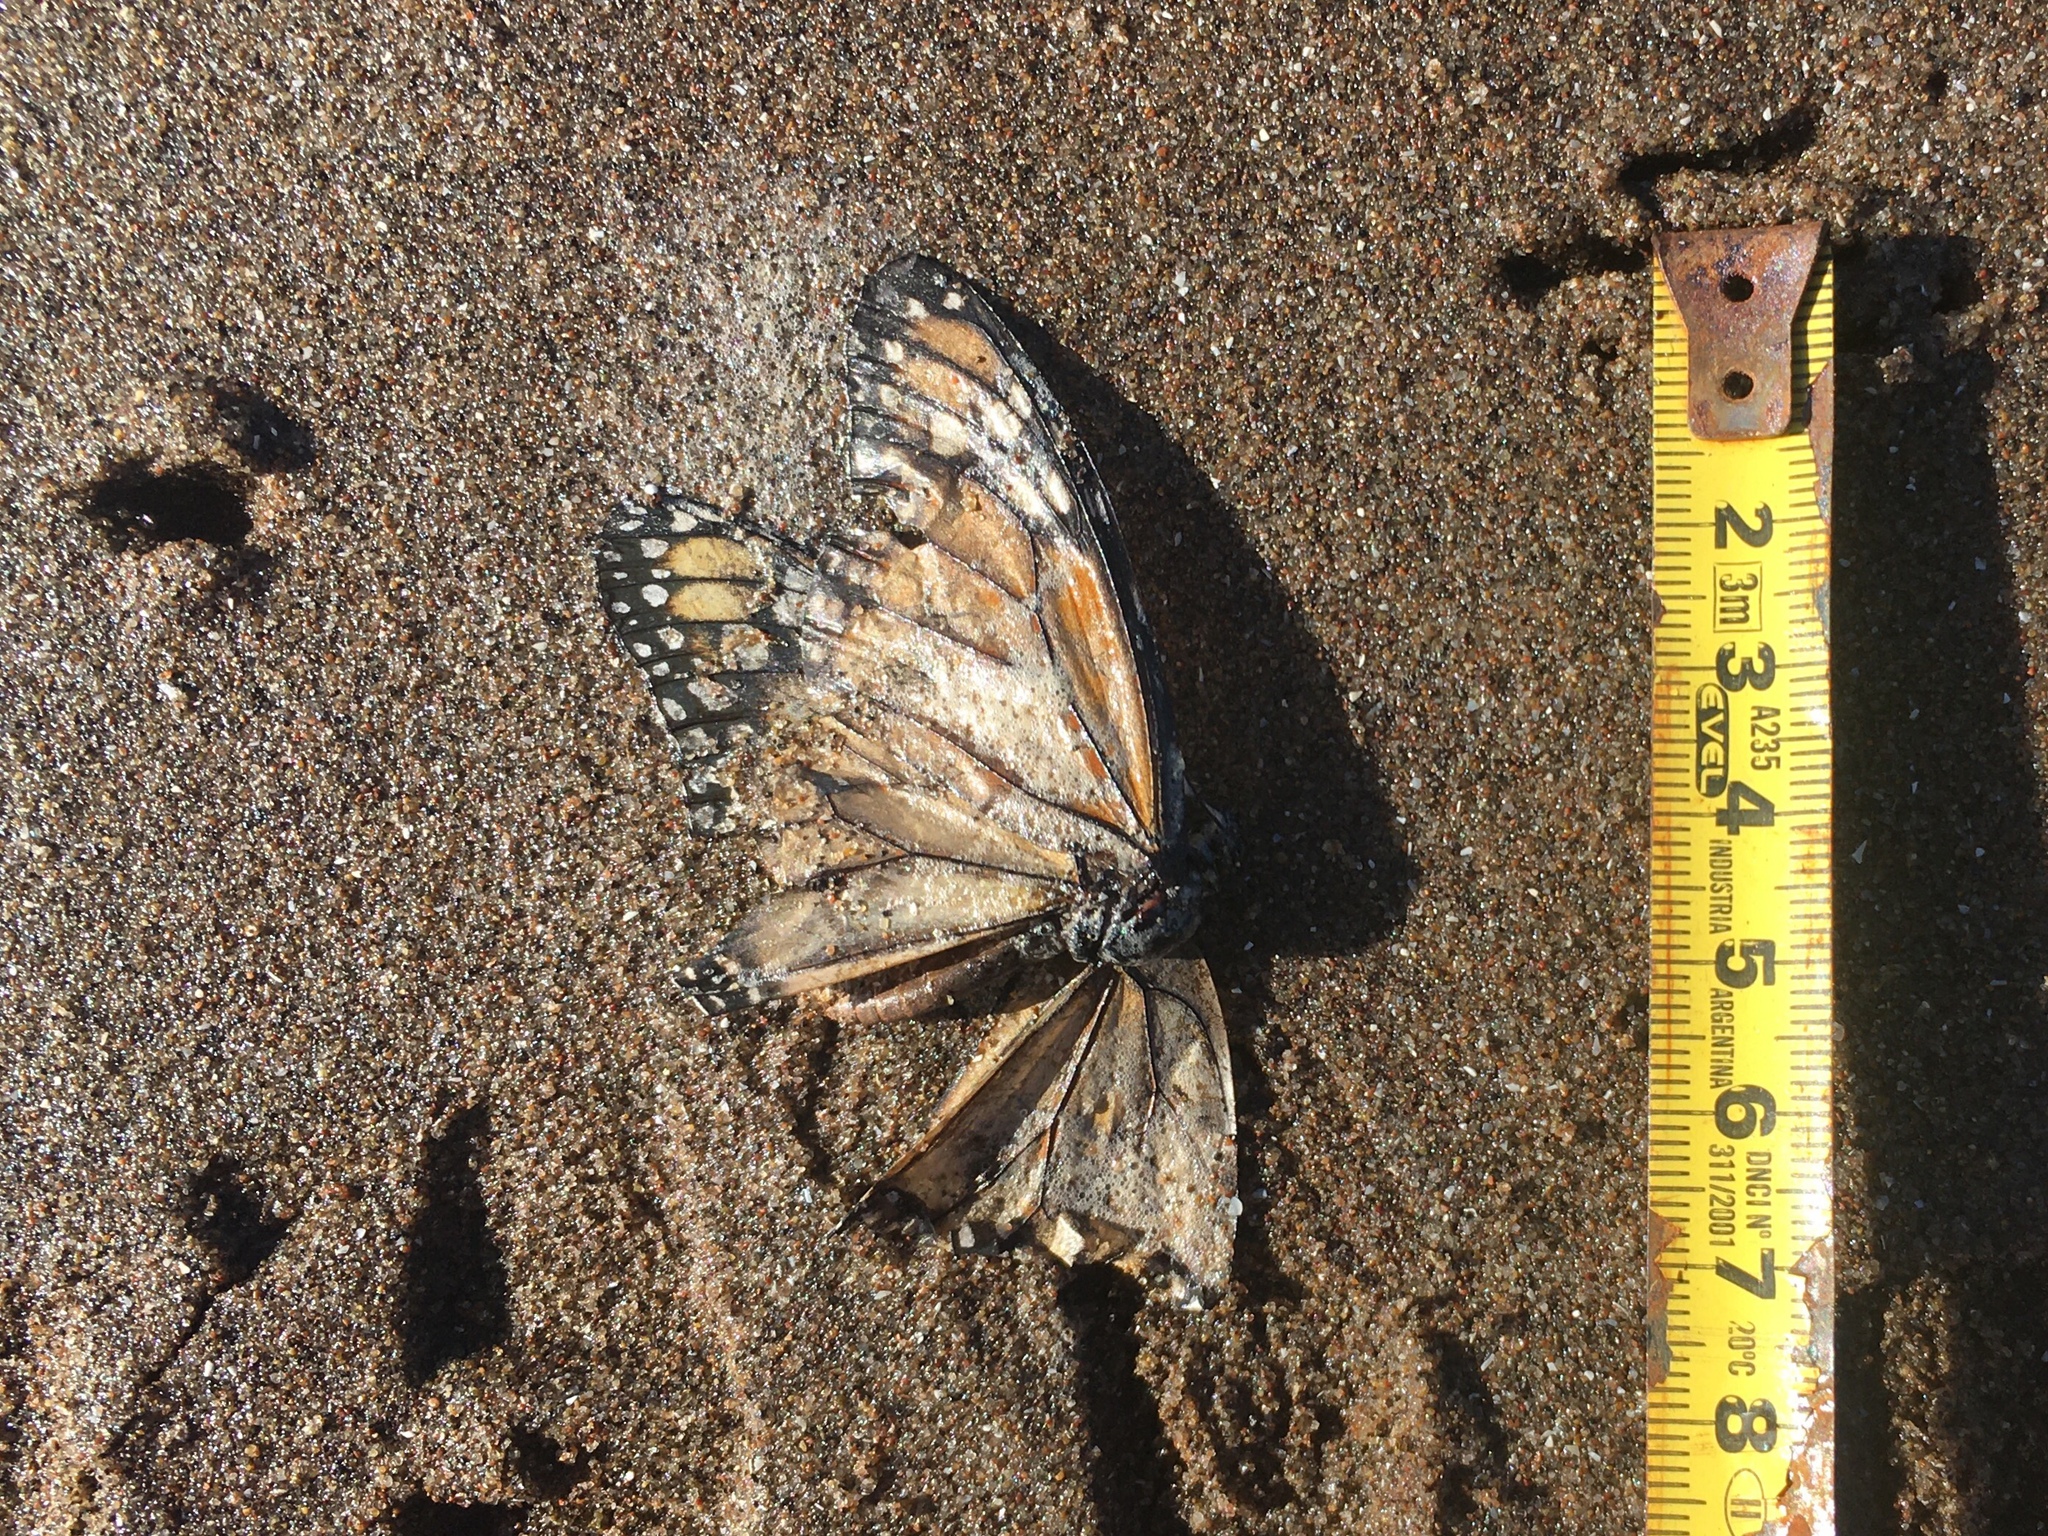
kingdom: Animalia
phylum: Arthropoda
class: Insecta
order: Lepidoptera
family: Nymphalidae
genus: Danaus
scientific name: Danaus erippus
